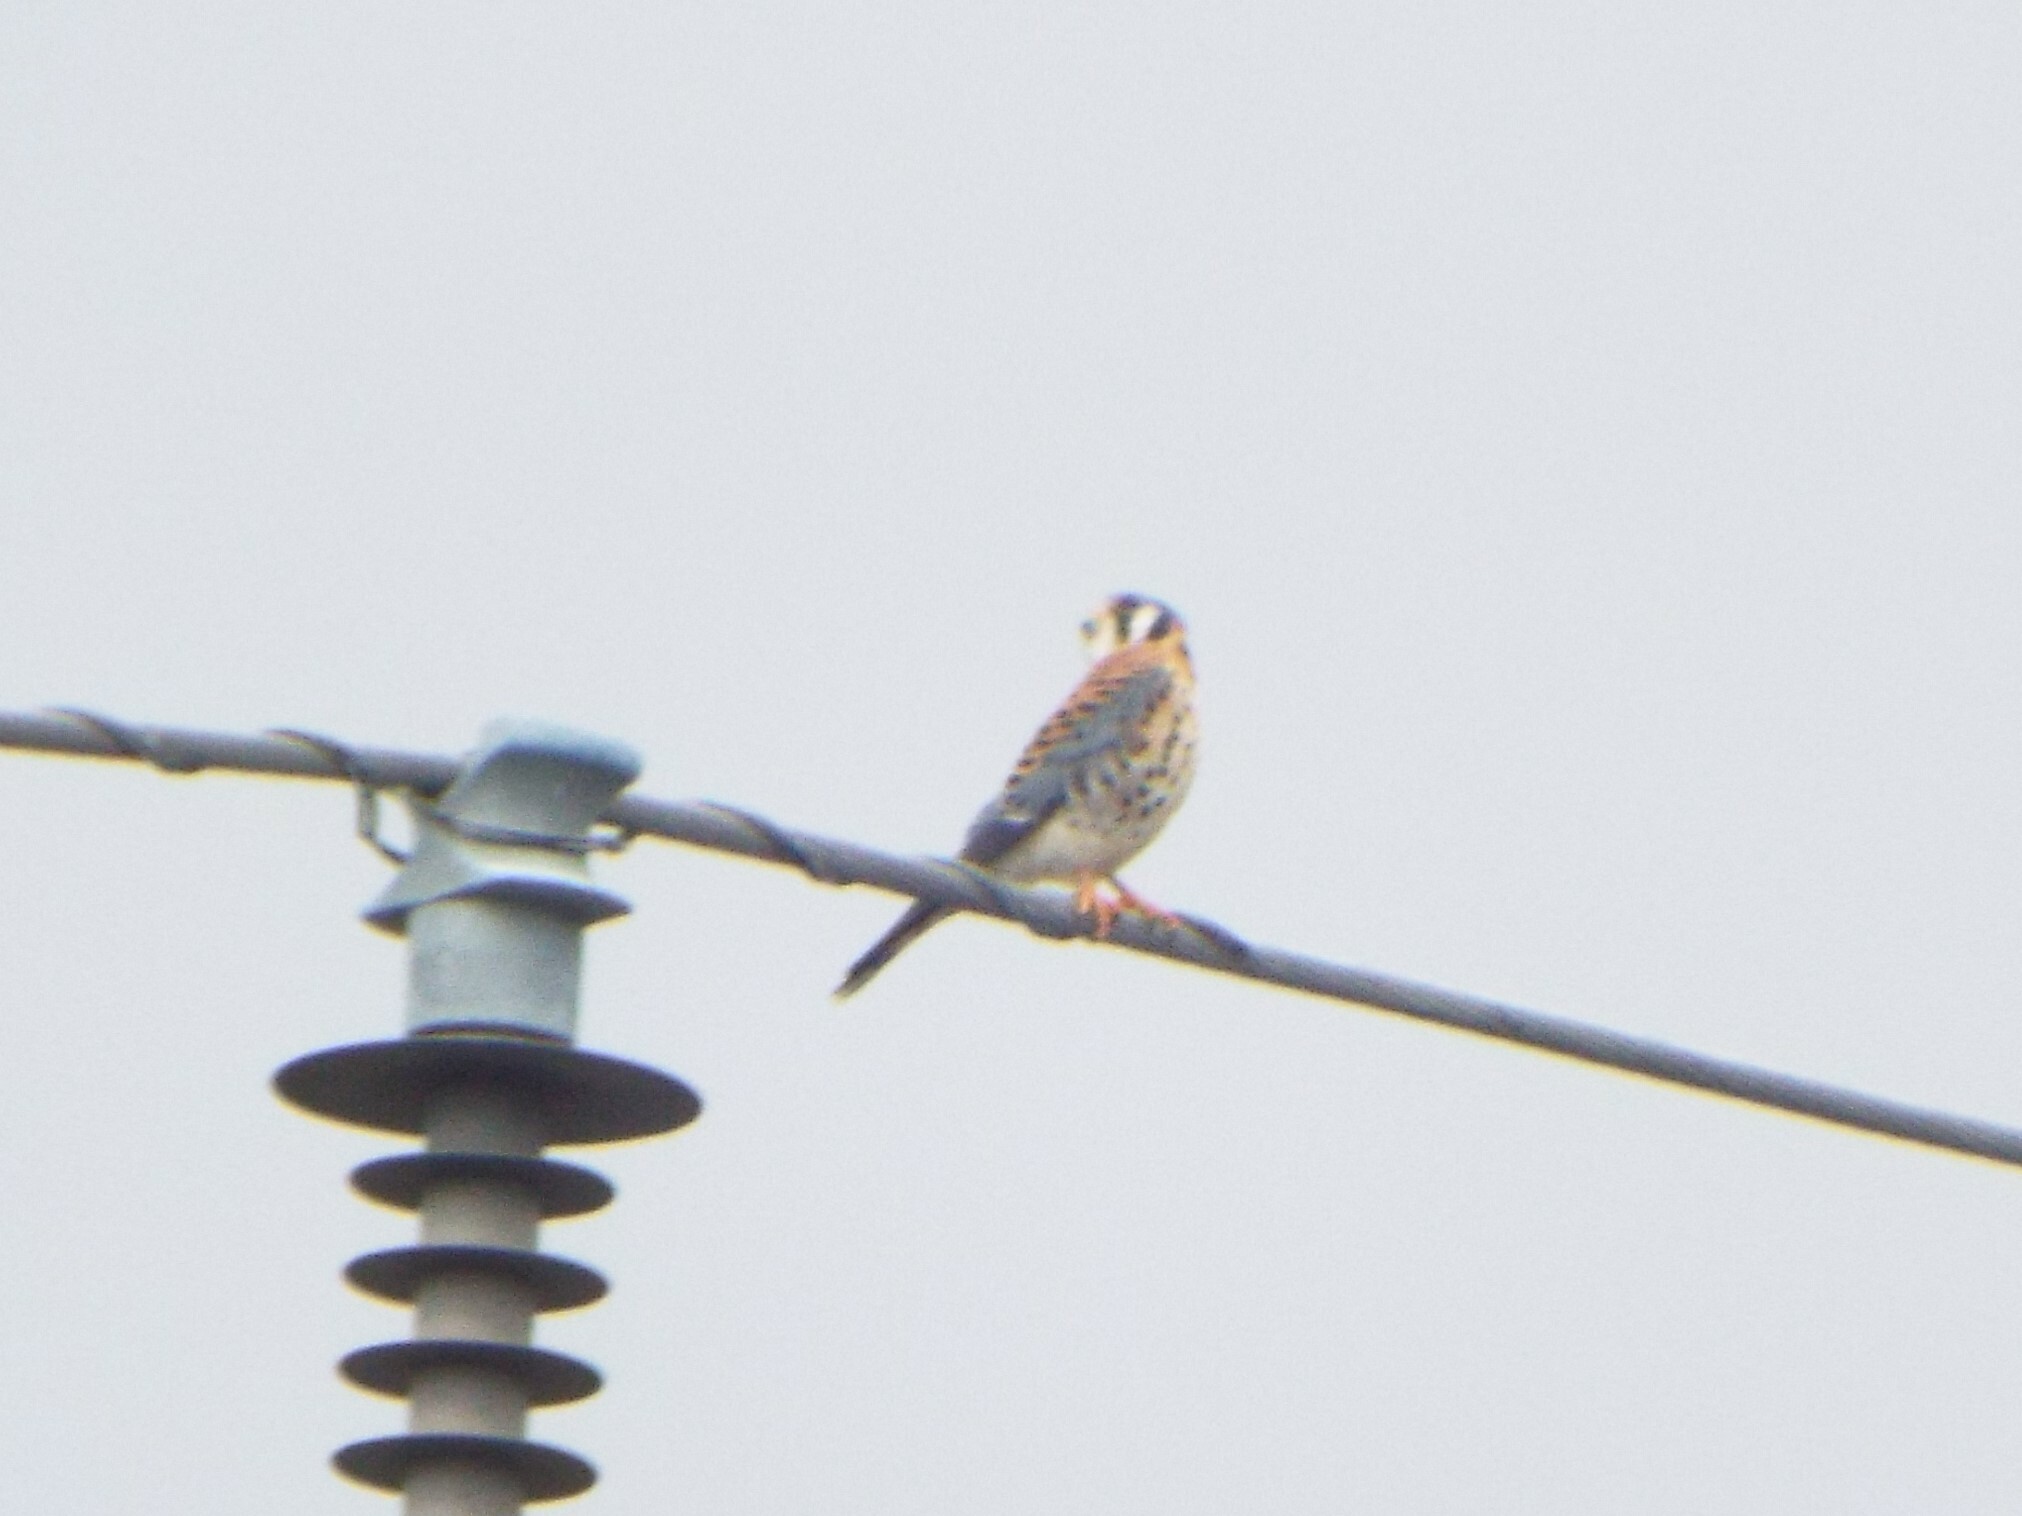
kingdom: Animalia
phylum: Chordata
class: Aves
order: Falconiformes
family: Falconidae
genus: Falco
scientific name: Falco sparverius
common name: American kestrel
